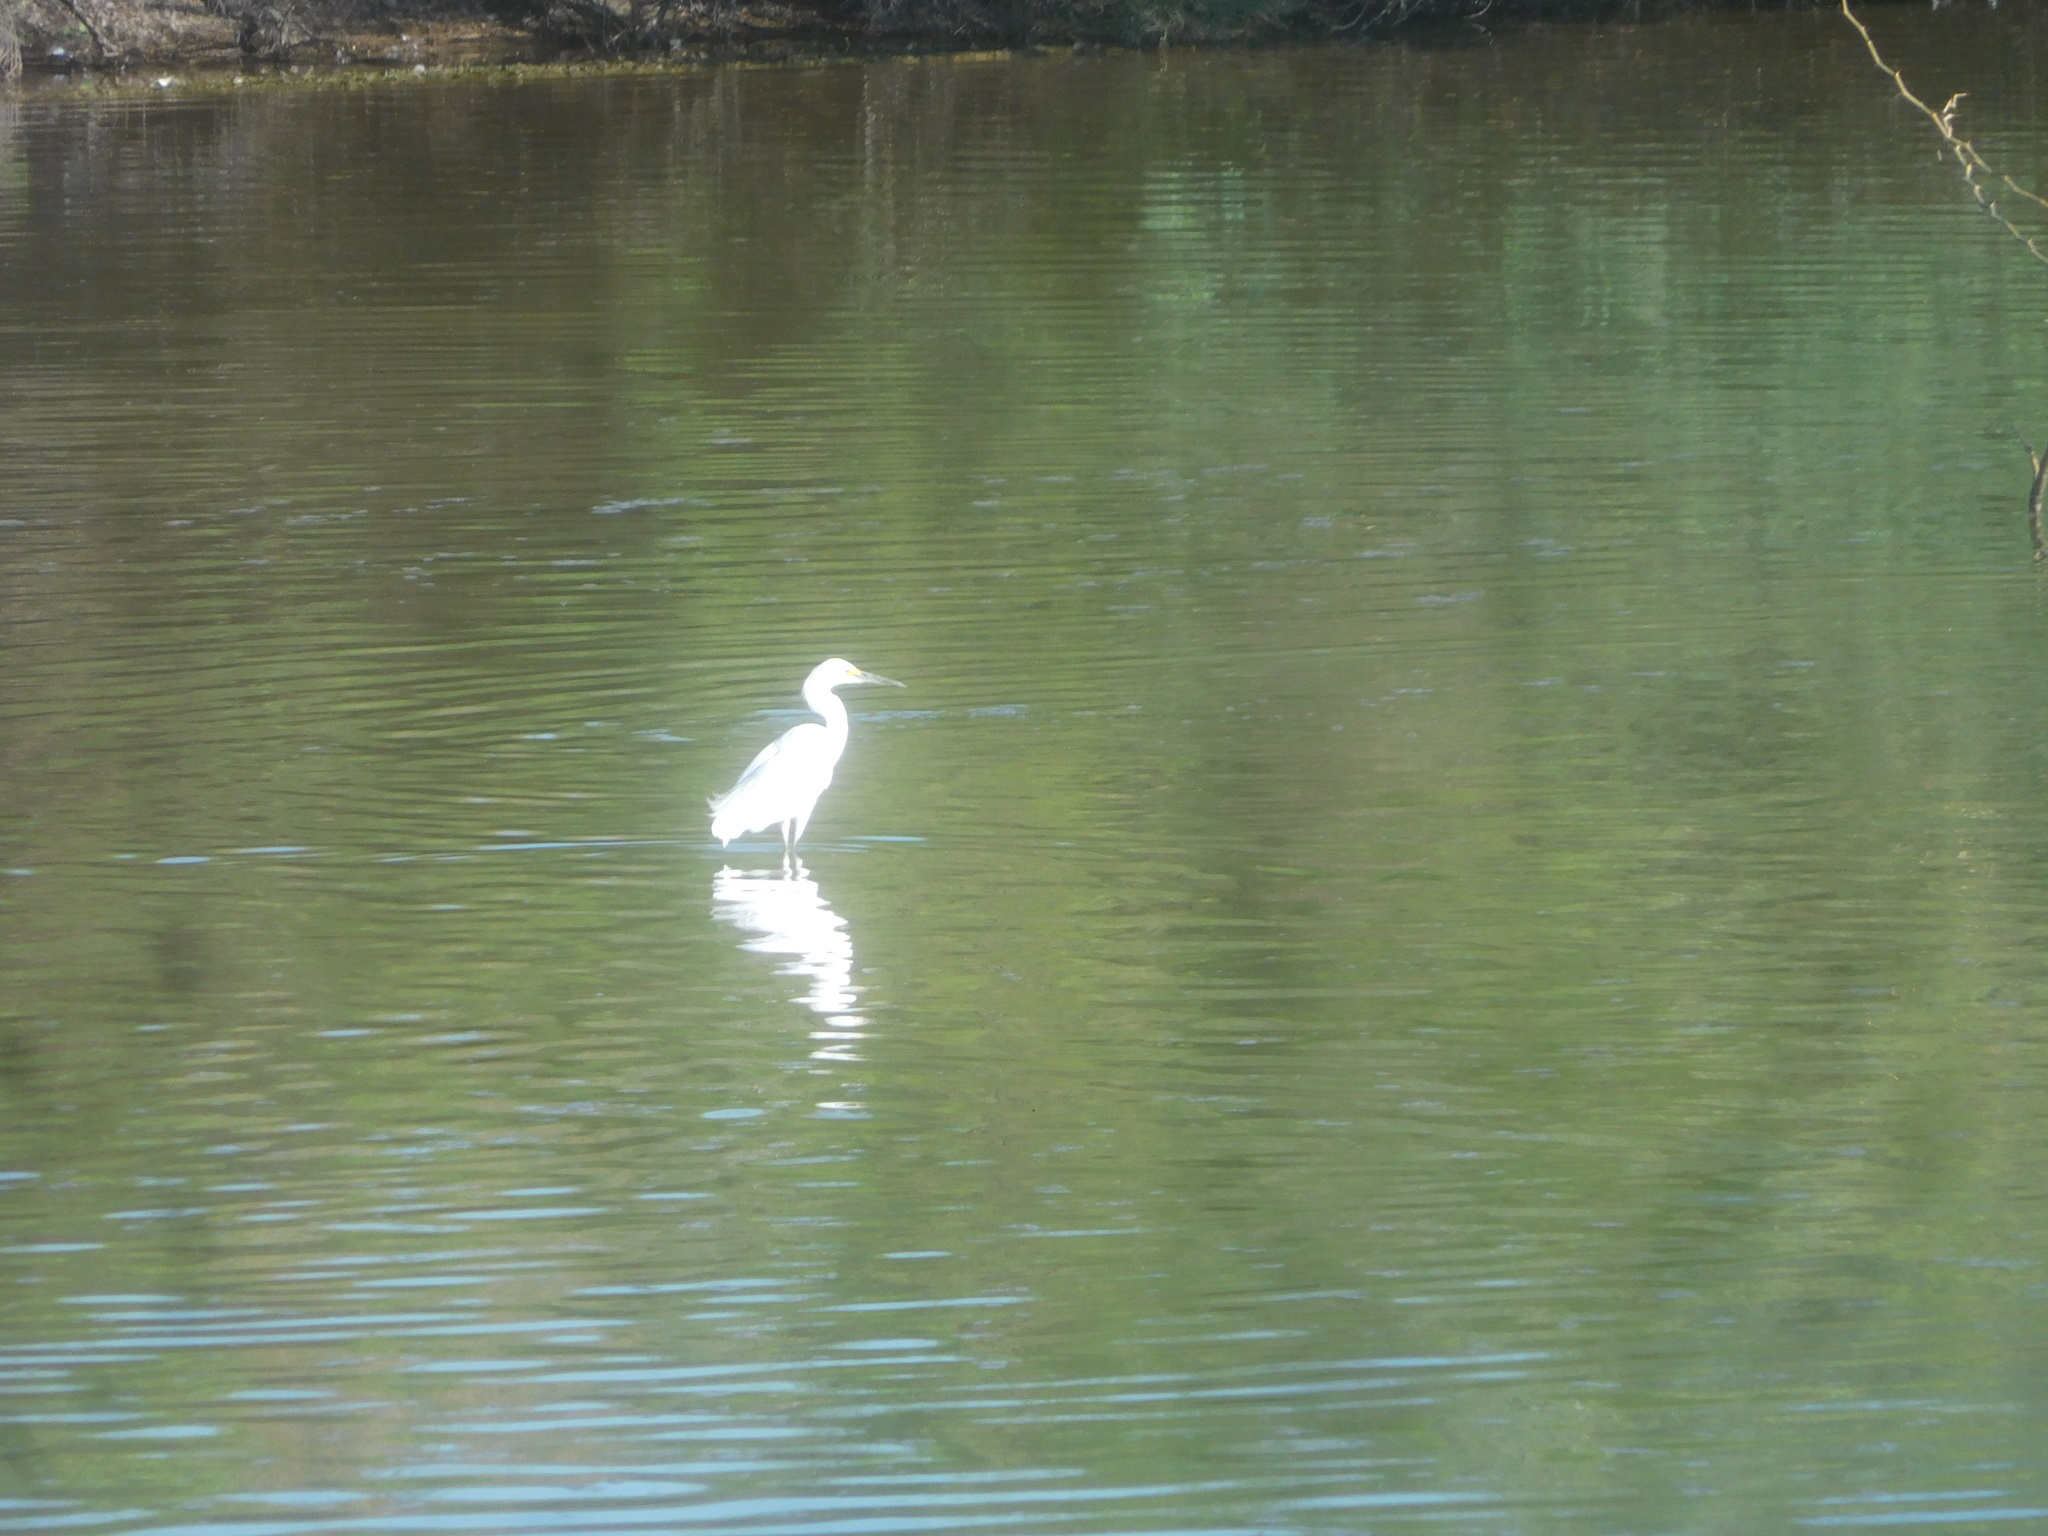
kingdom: Animalia
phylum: Chordata
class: Aves
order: Pelecaniformes
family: Ardeidae
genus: Egretta
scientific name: Egretta thula
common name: Snowy egret
